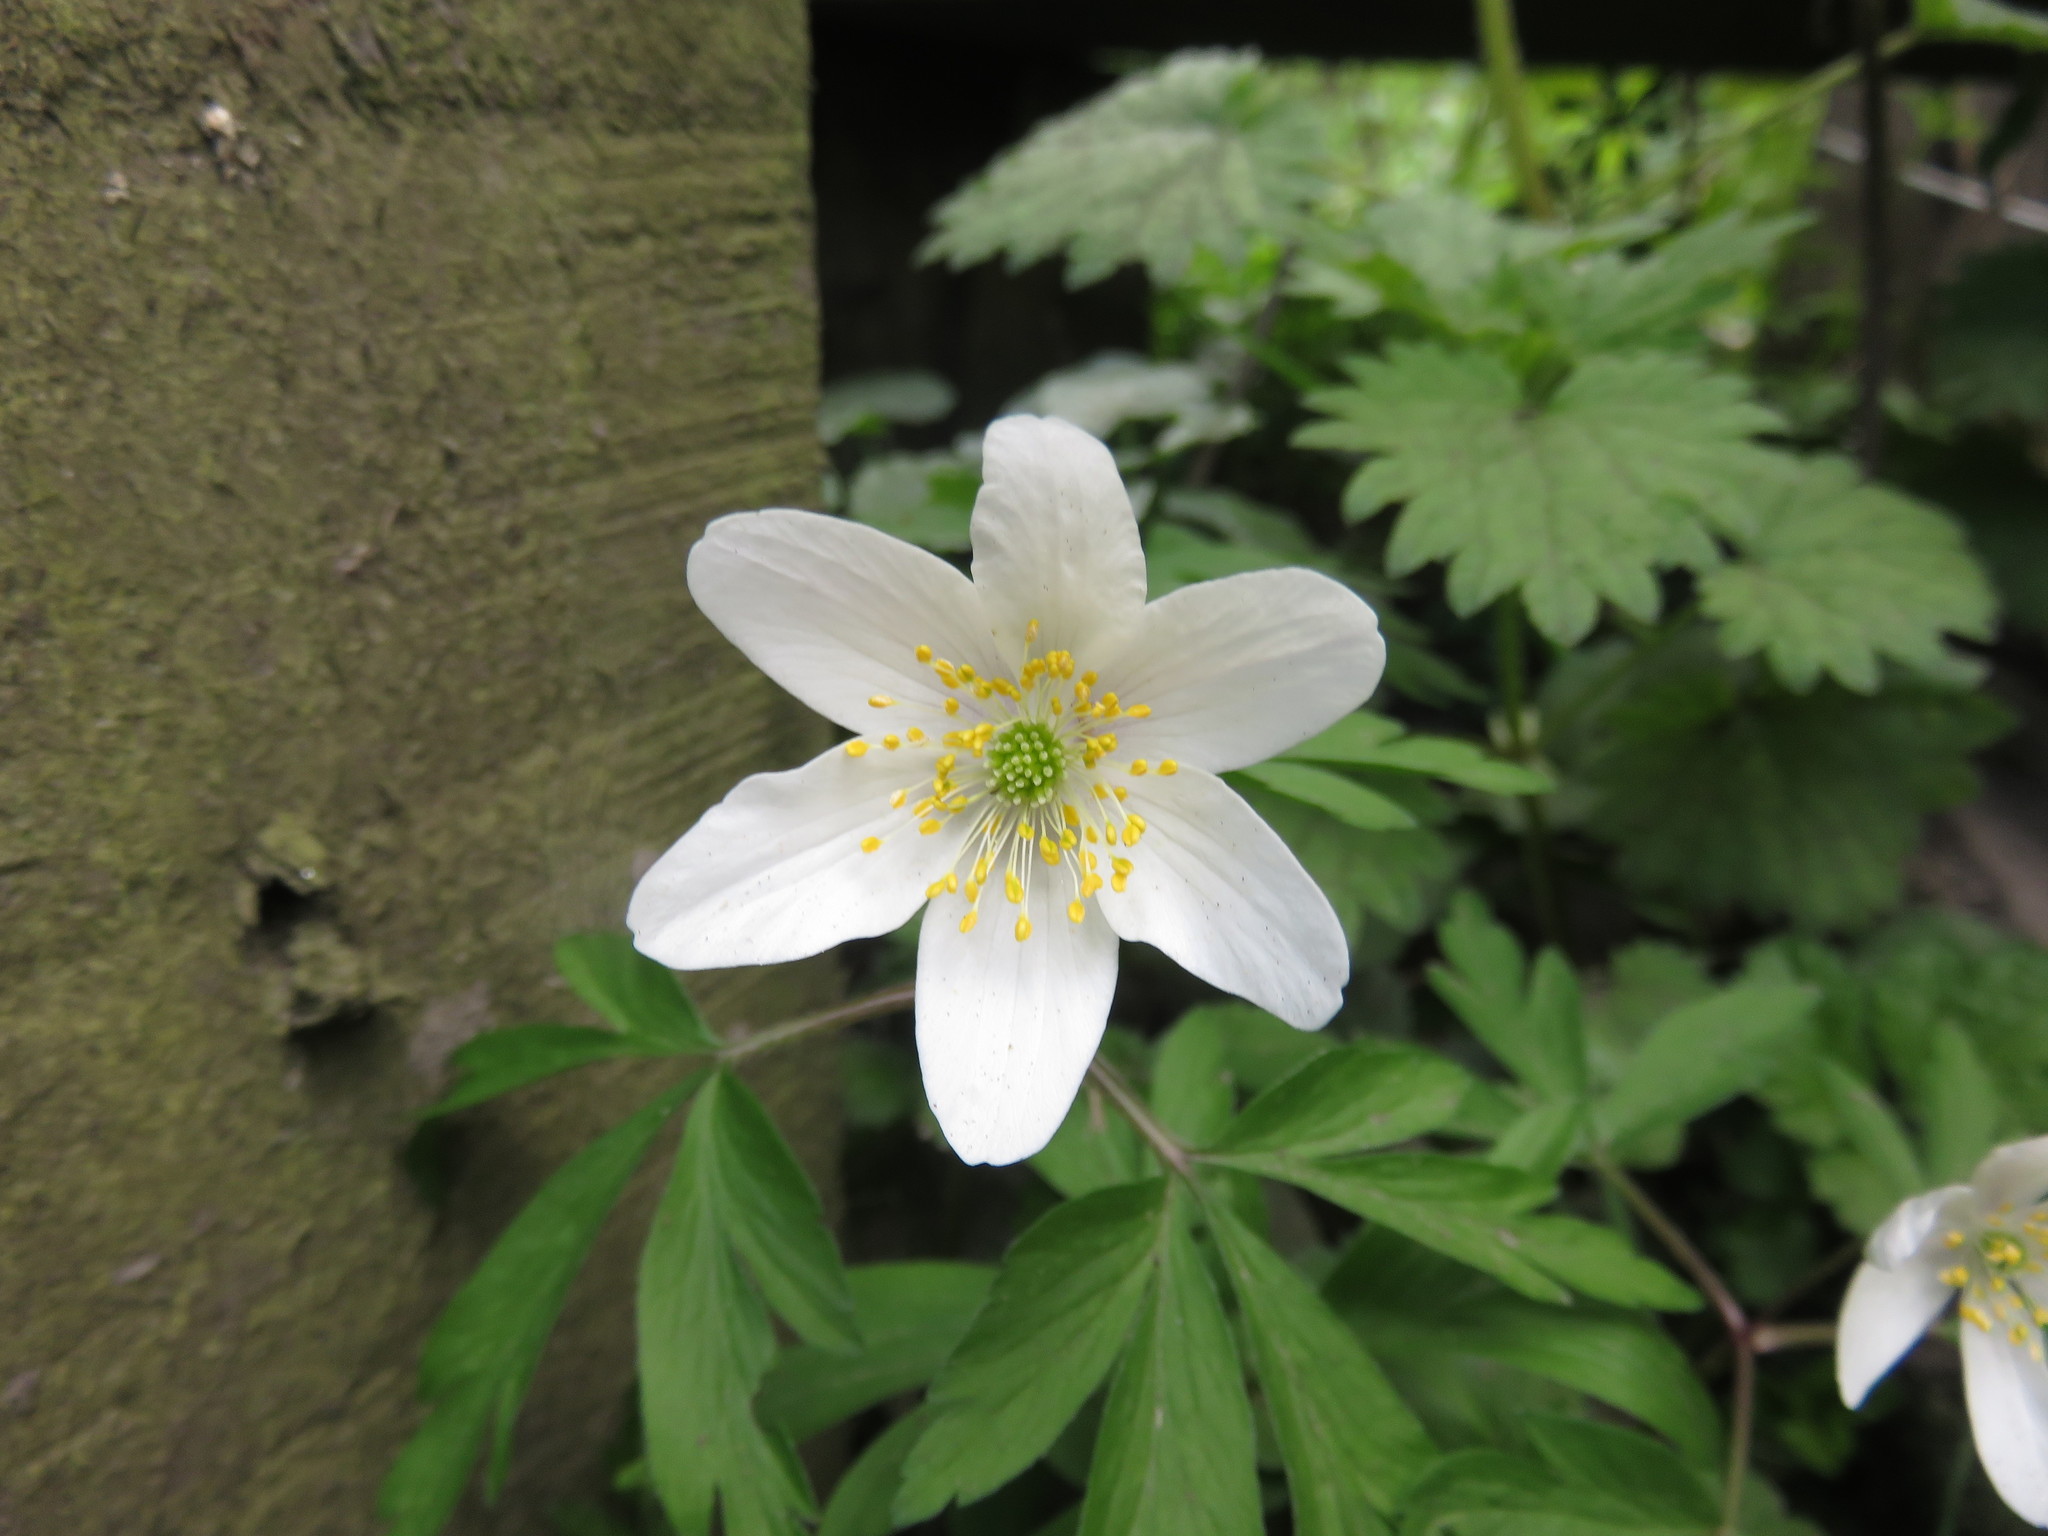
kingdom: Plantae
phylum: Tracheophyta
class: Magnoliopsida
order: Ranunculales
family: Ranunculaceae
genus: Anemone
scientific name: Anemone nemorosa
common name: Wood anemone
